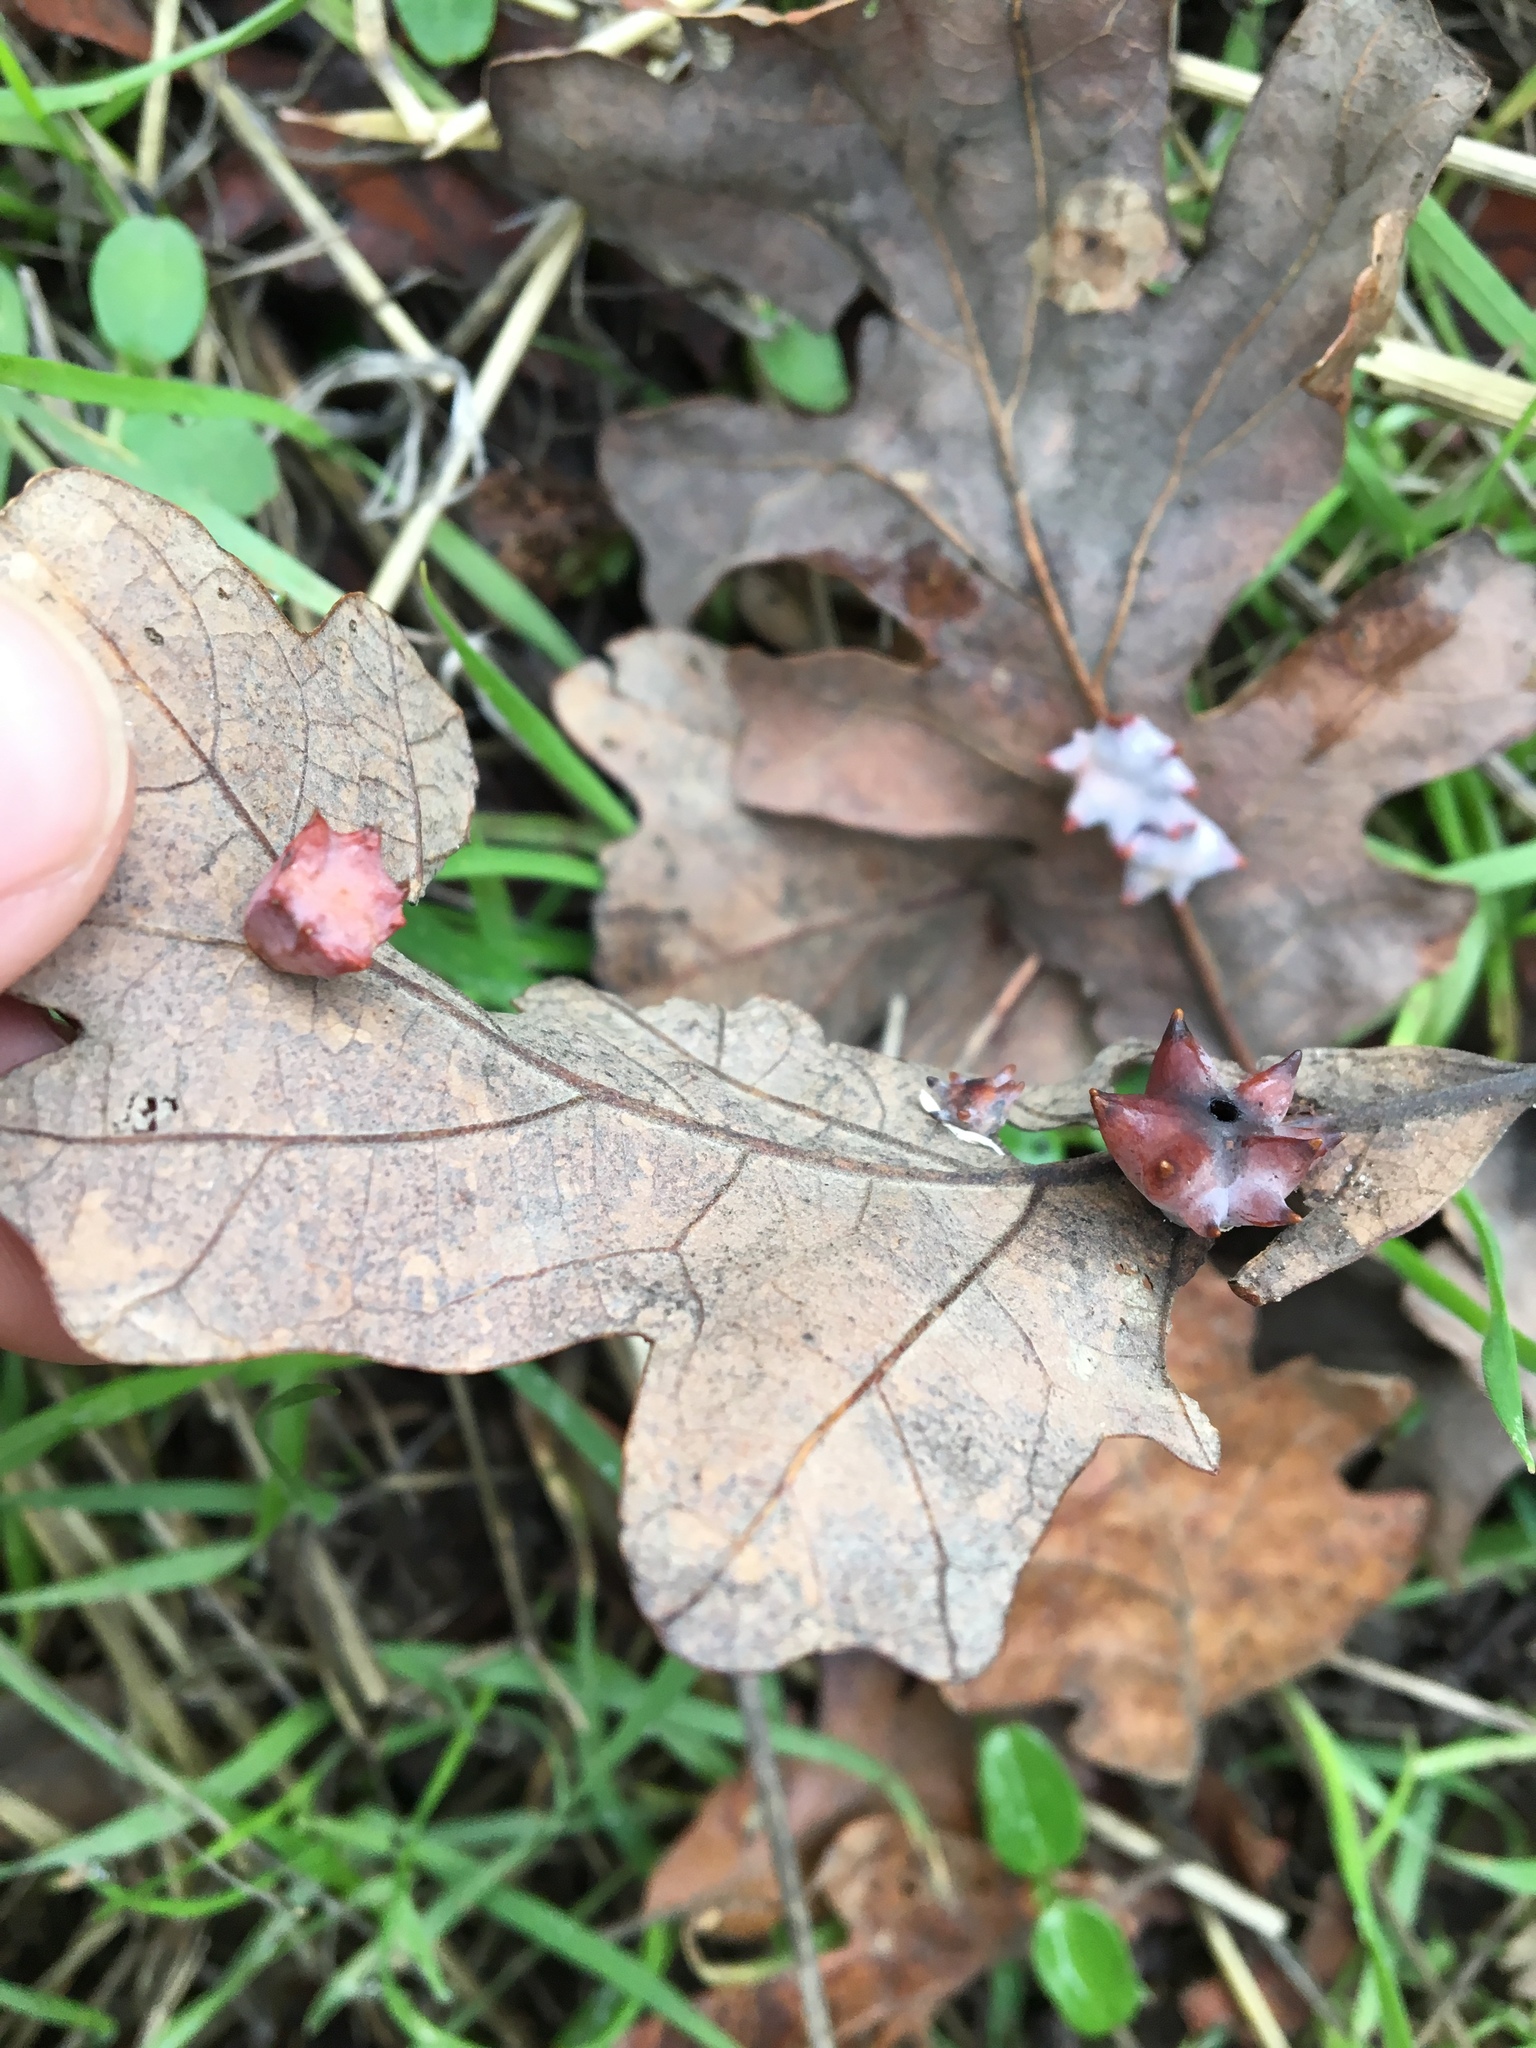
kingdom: Animalia
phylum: Arthropoda
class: Insecta
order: Hymenoptera
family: Cynipidae
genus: Cynips
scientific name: Cynips douglasi
